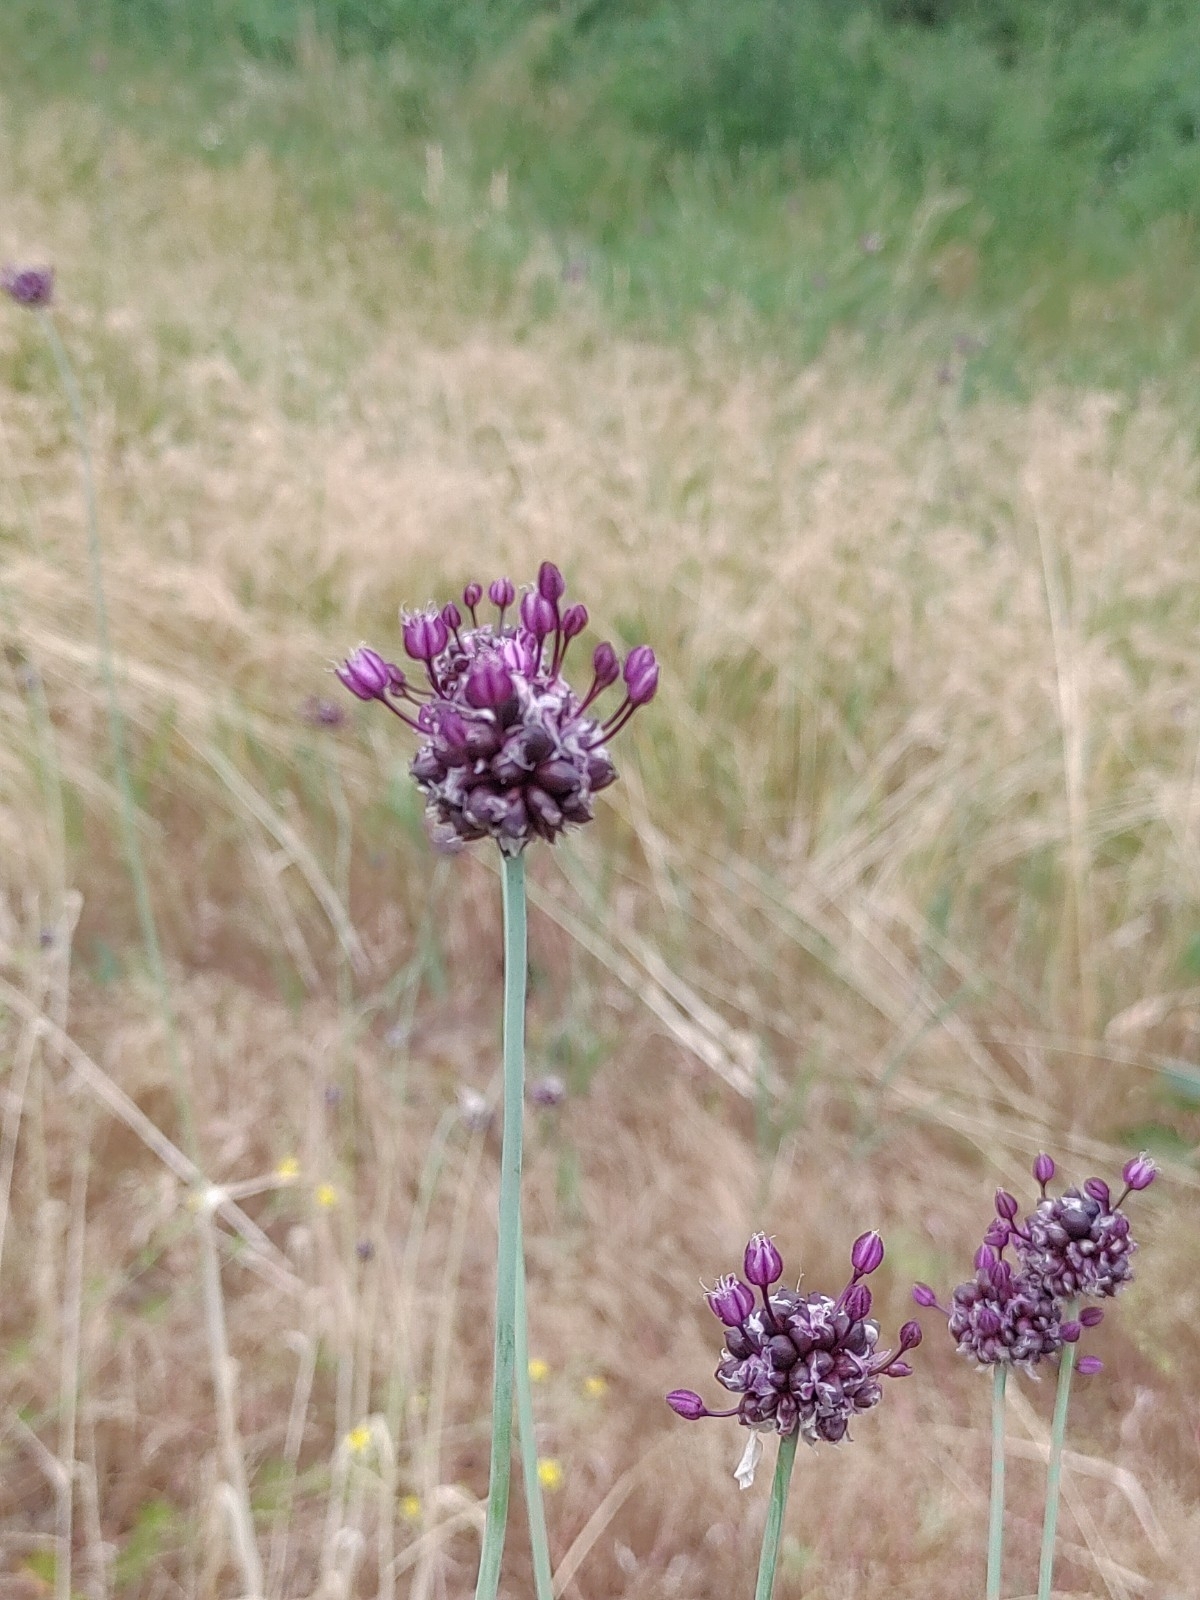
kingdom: Plantae
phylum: Tracheophyta
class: Liliopsida
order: Asparagales
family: Amaryllidaceae
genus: Allium
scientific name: Allium scorodoprasum
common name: Sand leek
